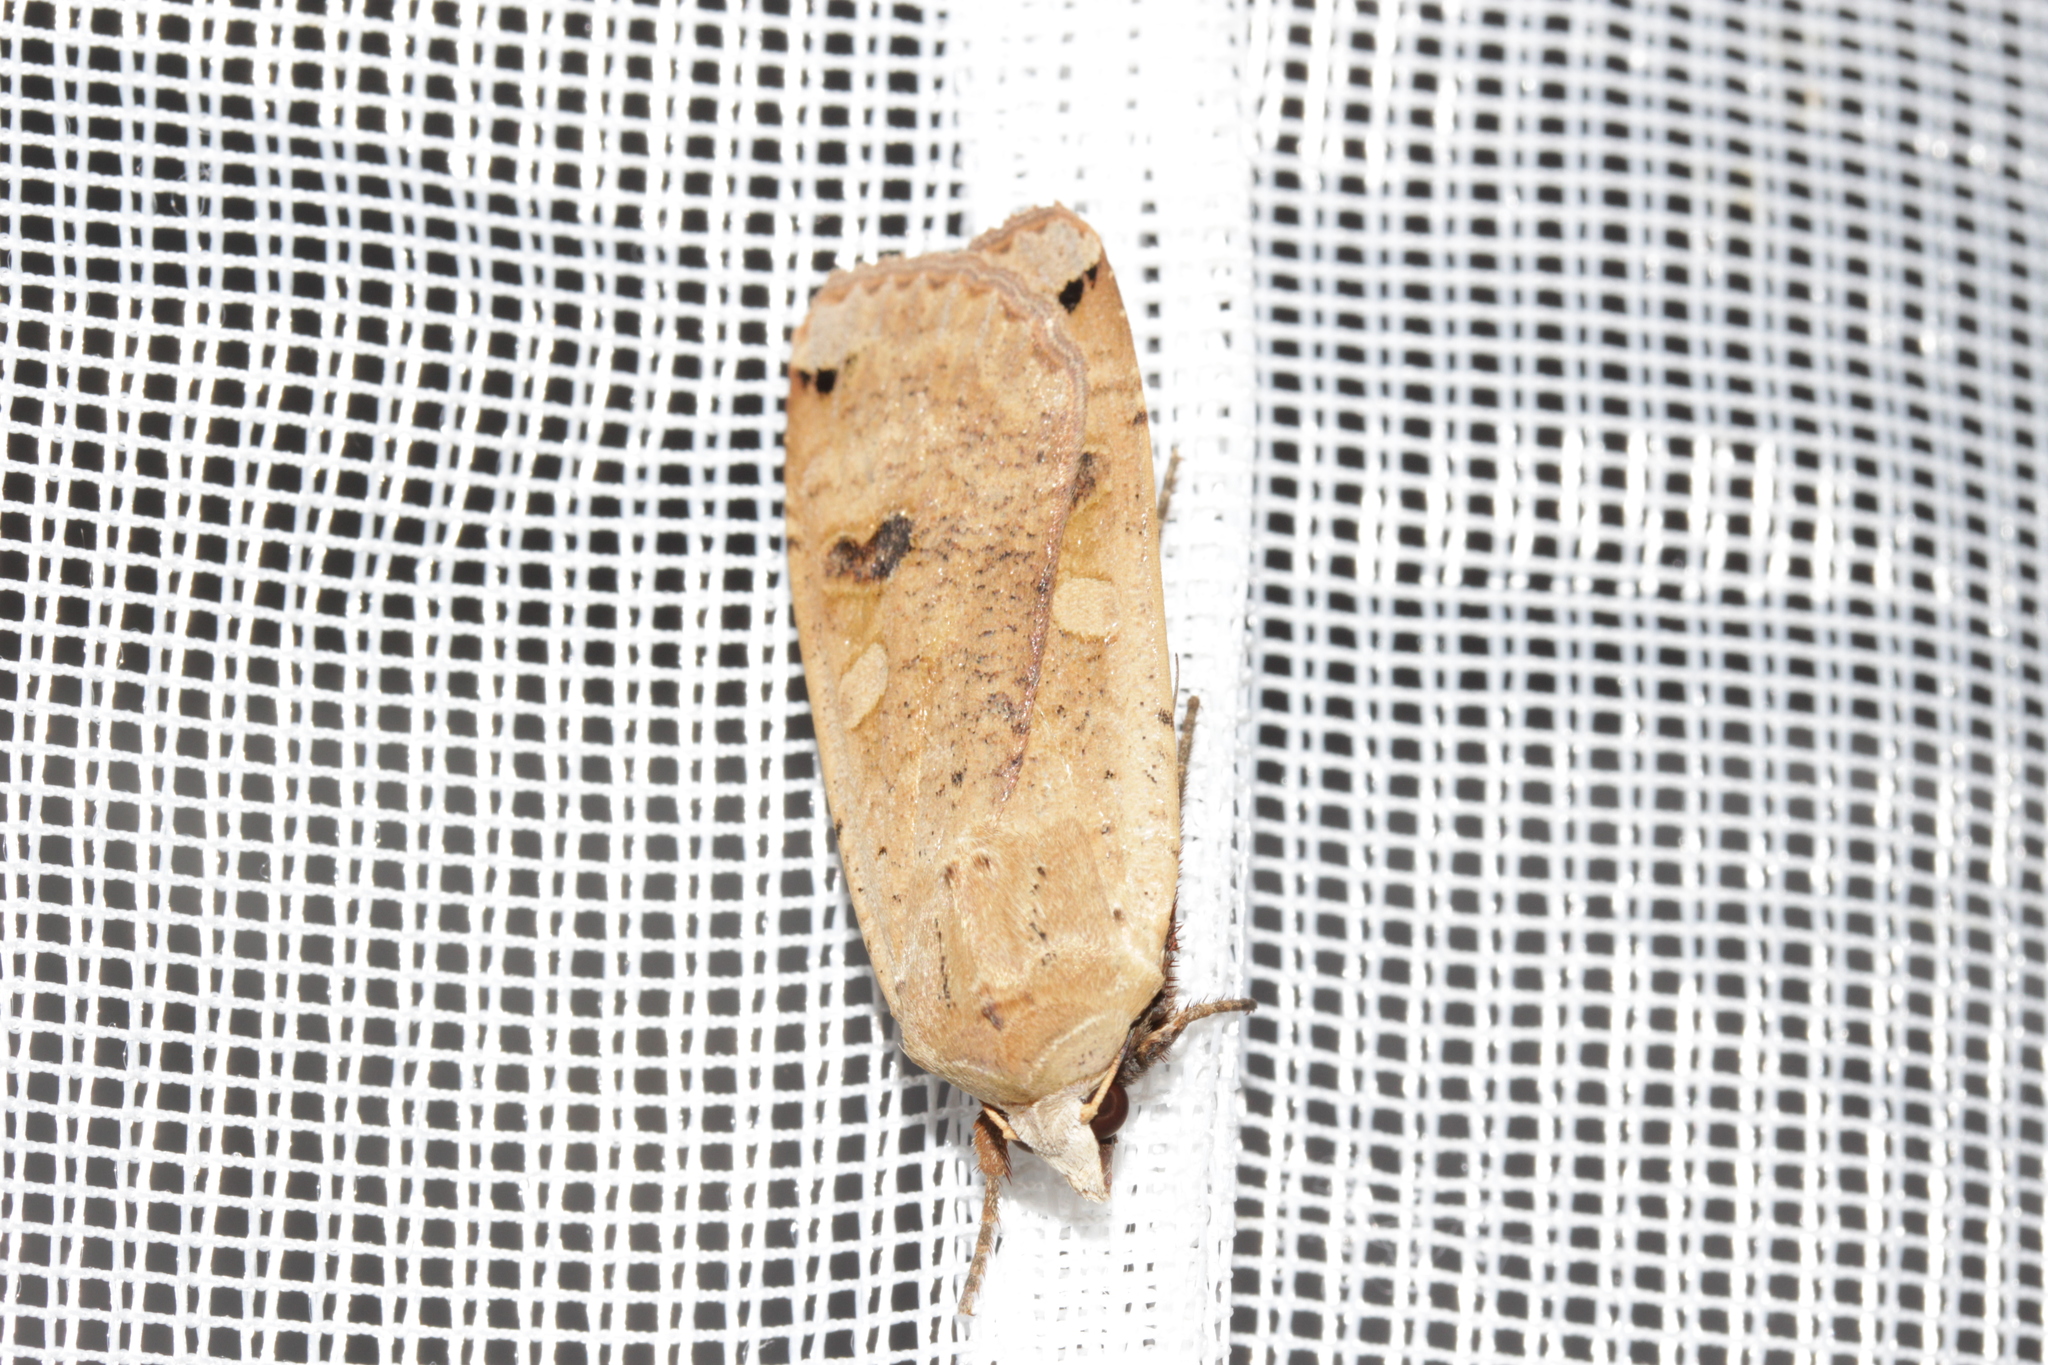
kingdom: Animalia
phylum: Arthropoda
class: Insecta
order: Lepidoptera
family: Noctuidae
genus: Noctua
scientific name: Noctua pronuba
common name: Large yellow underwing
